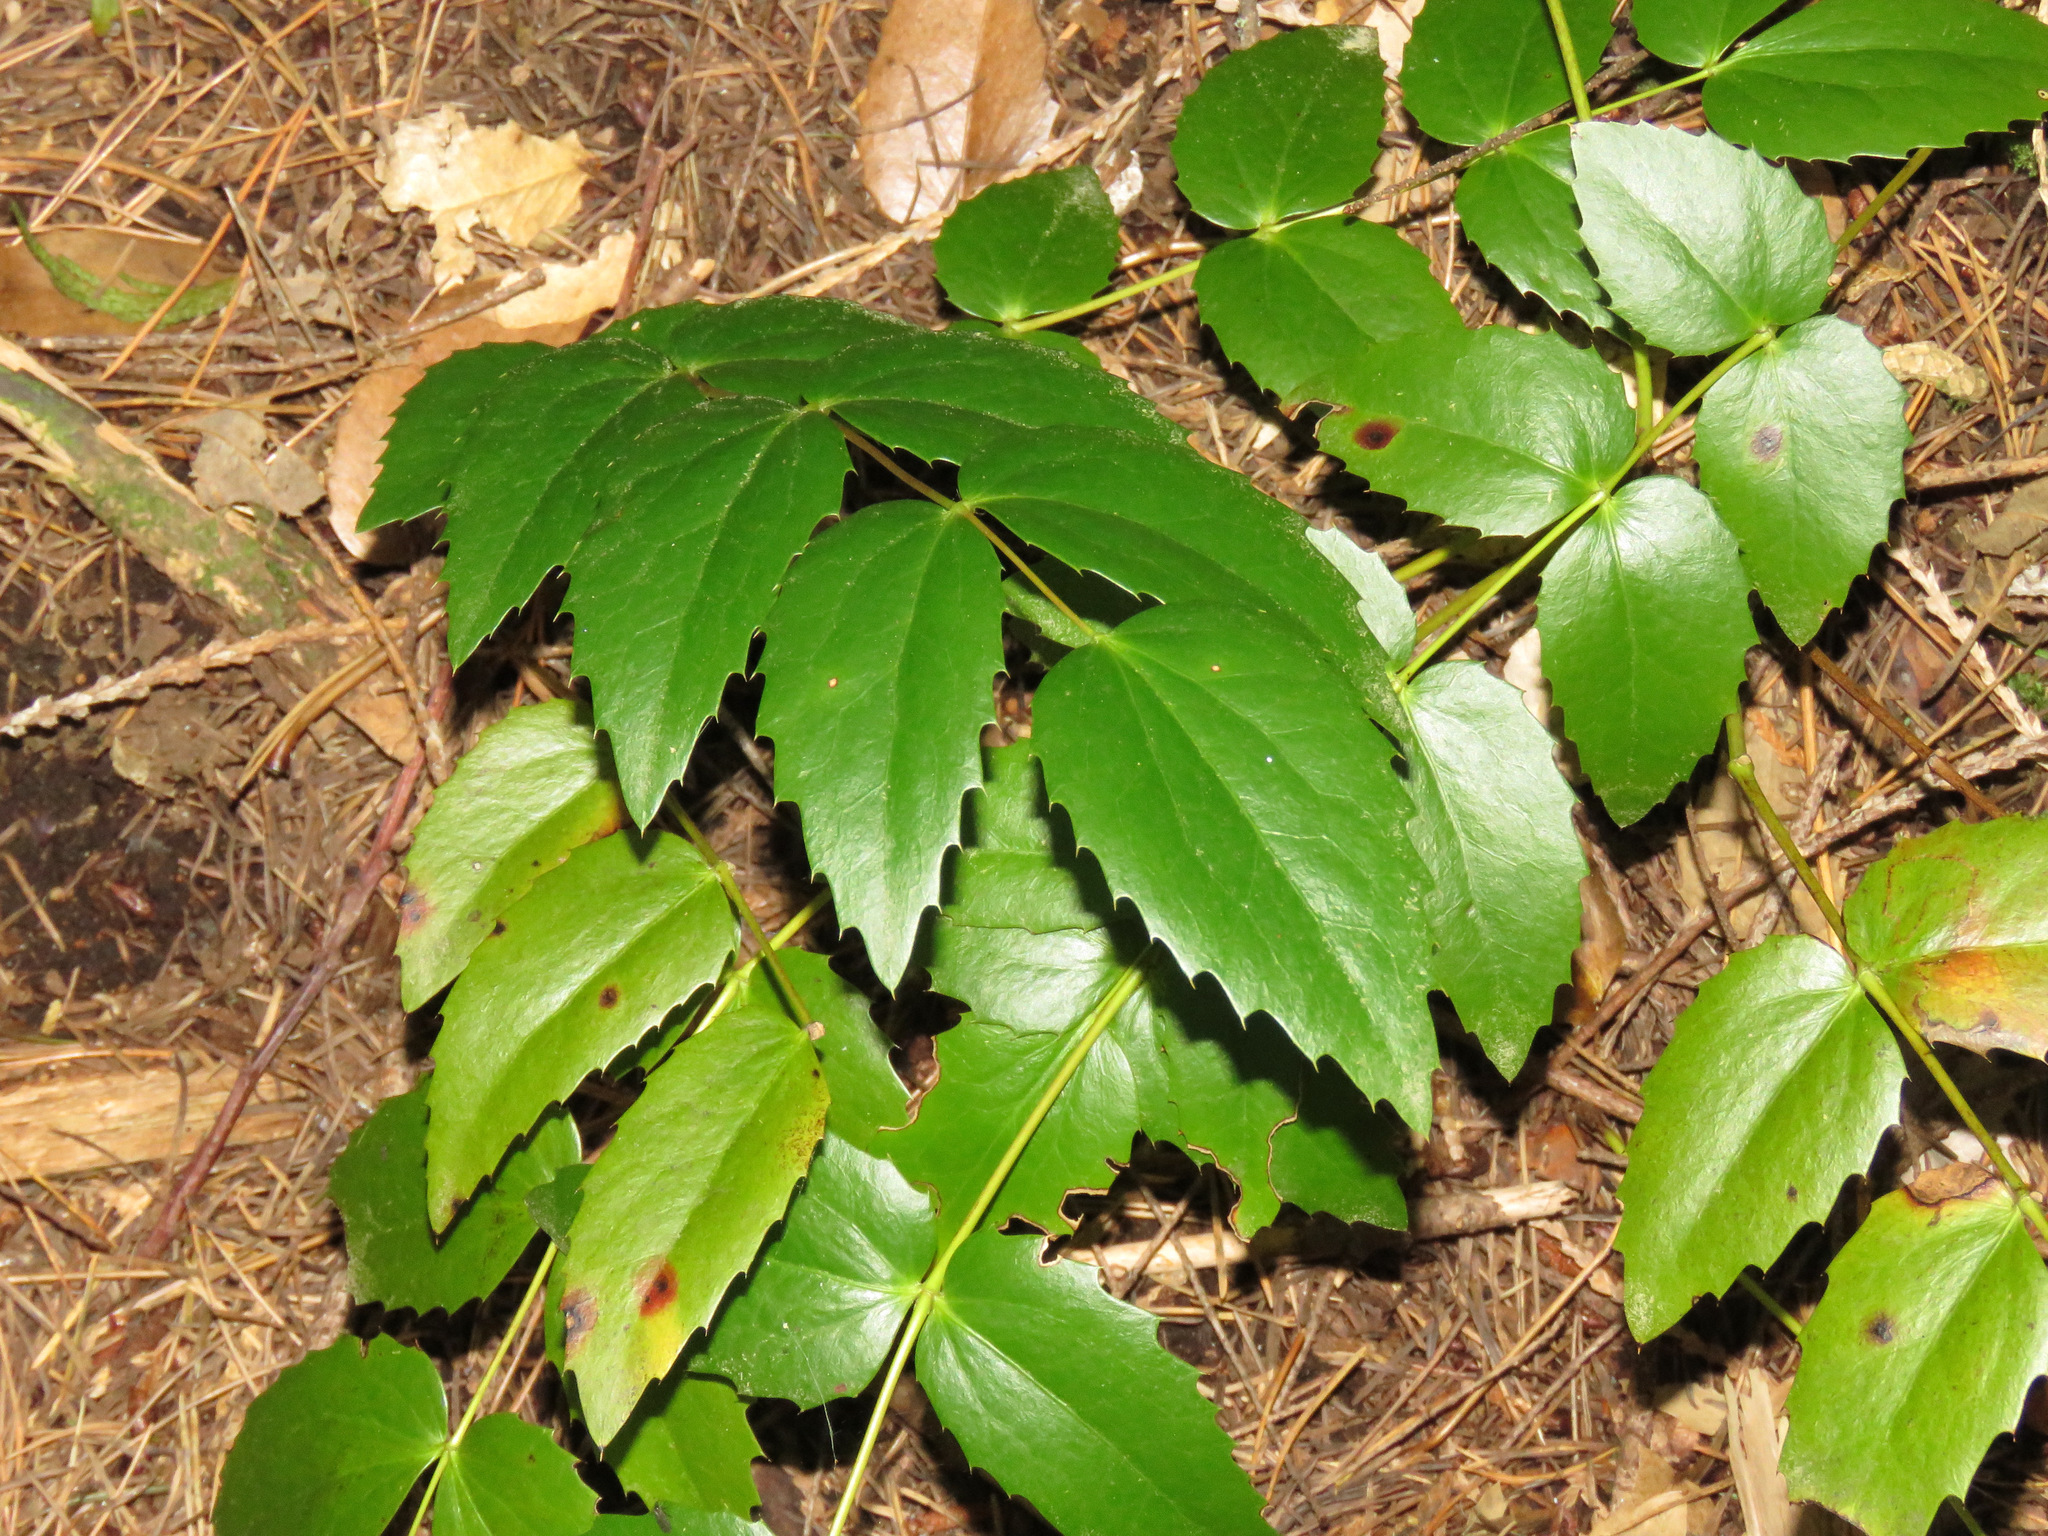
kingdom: Plantae
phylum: Tracheophyta
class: Magnoliopsida
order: Ranunculales
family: Berberidaceae
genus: Mahonia
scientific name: Mahonia nervosa
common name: Cascade oregon-grape
